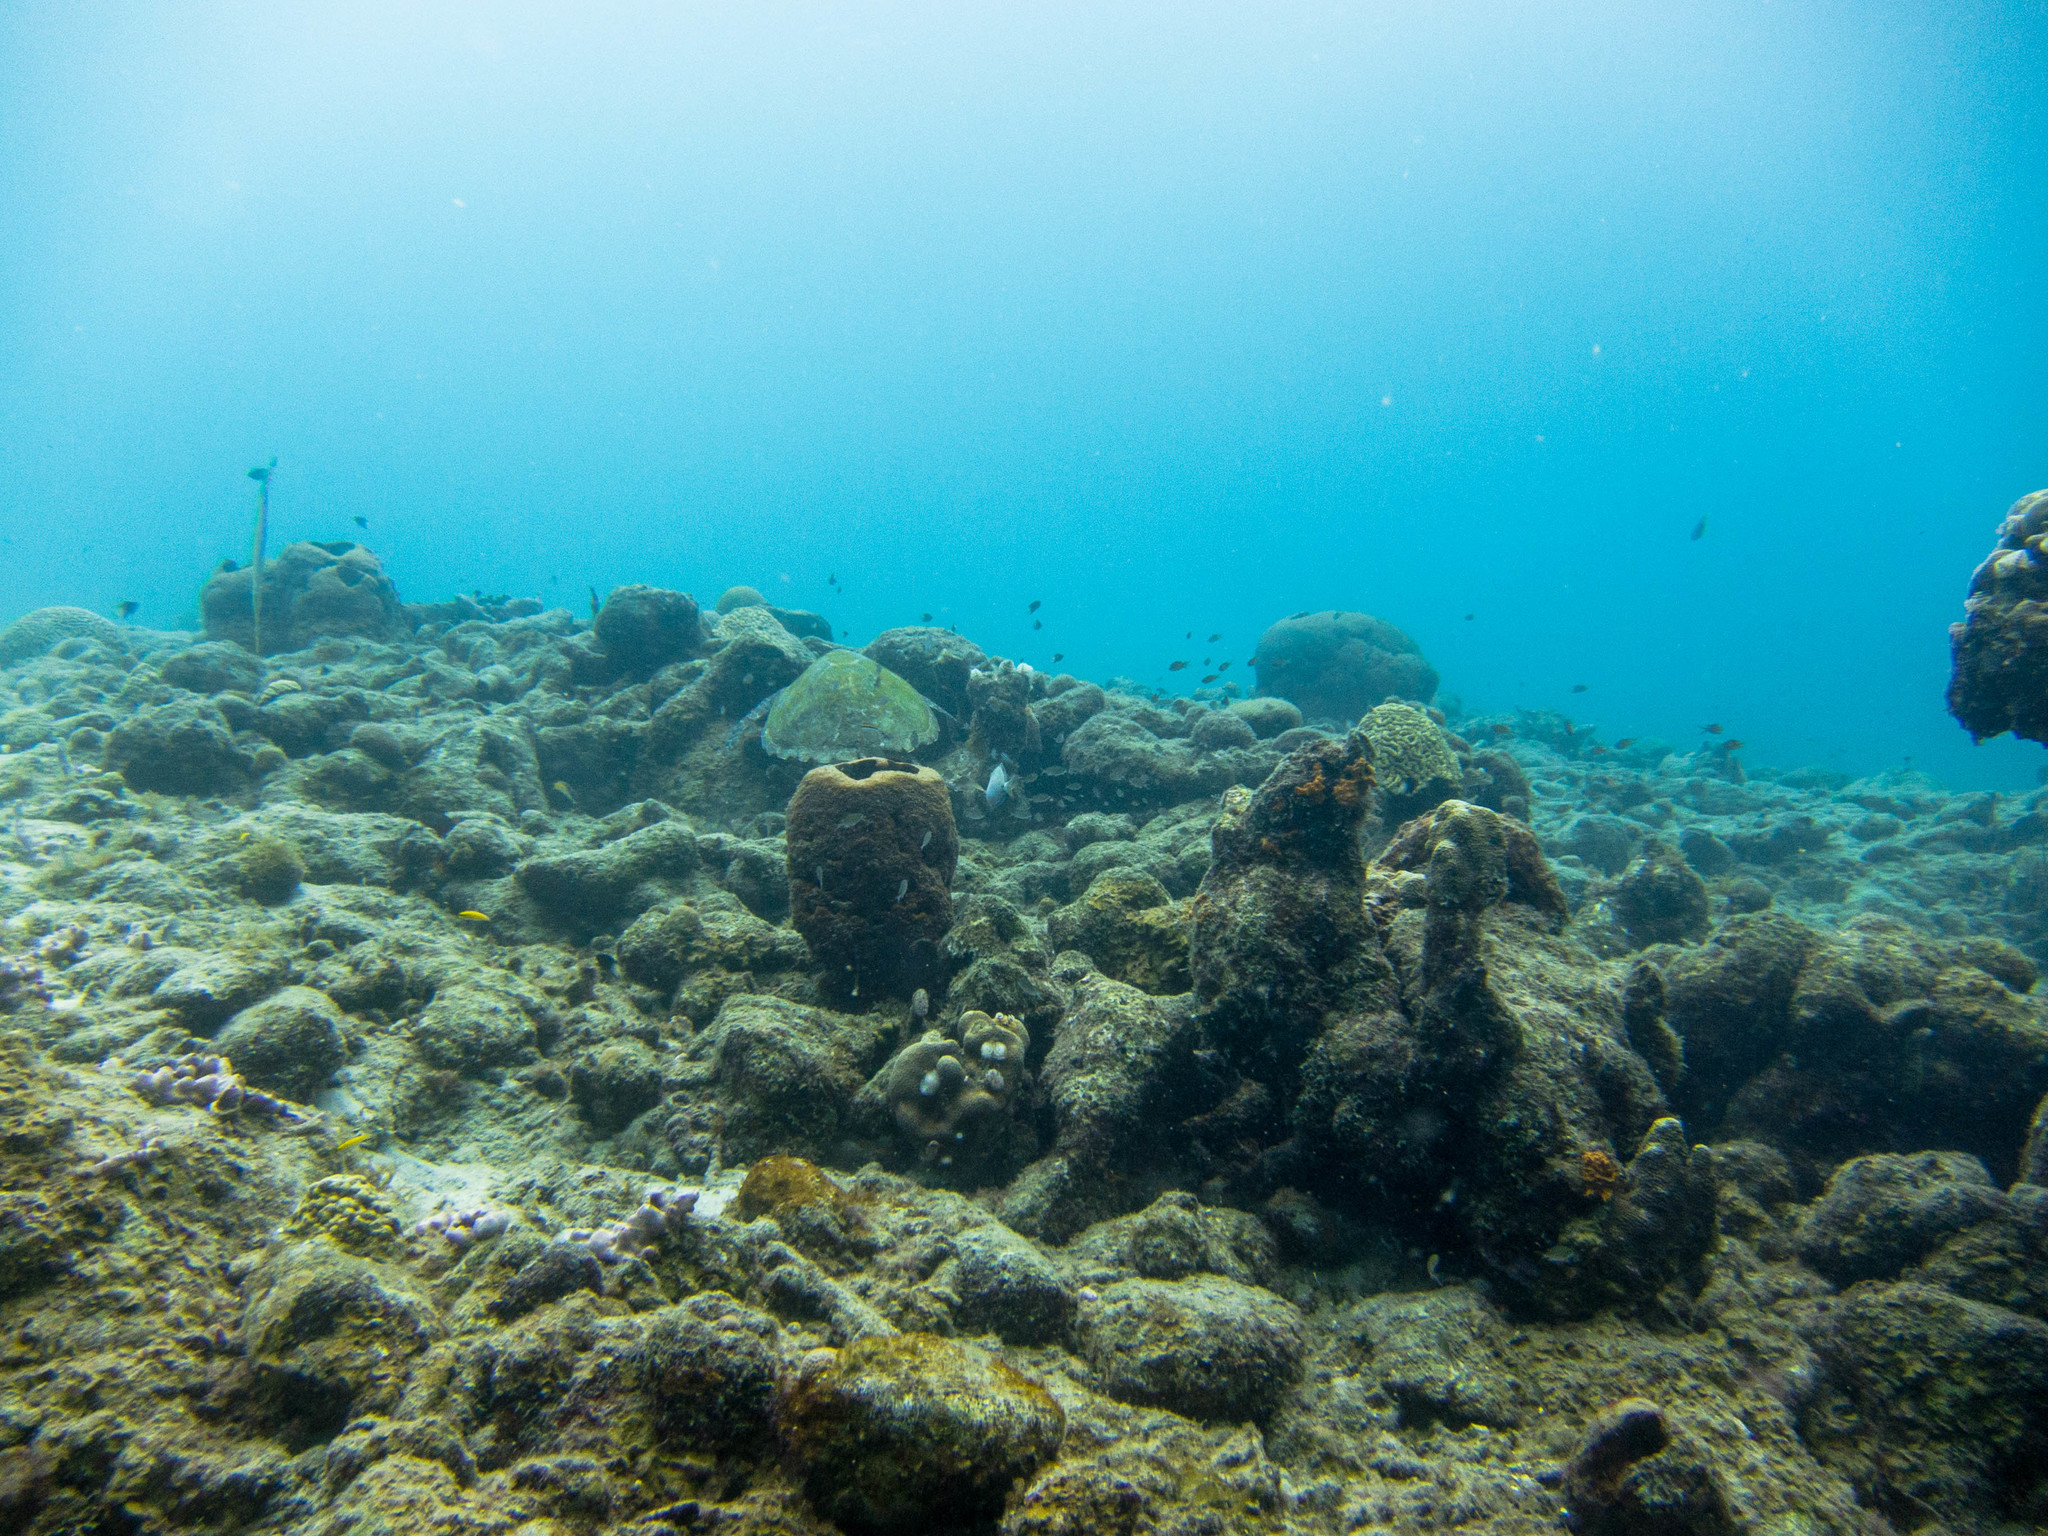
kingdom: Animalia
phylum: Chordata
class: Testudines
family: Cheloniidae
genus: Eretmochelys
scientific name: Eretmochelys imbricata
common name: Hawksbill turtle
